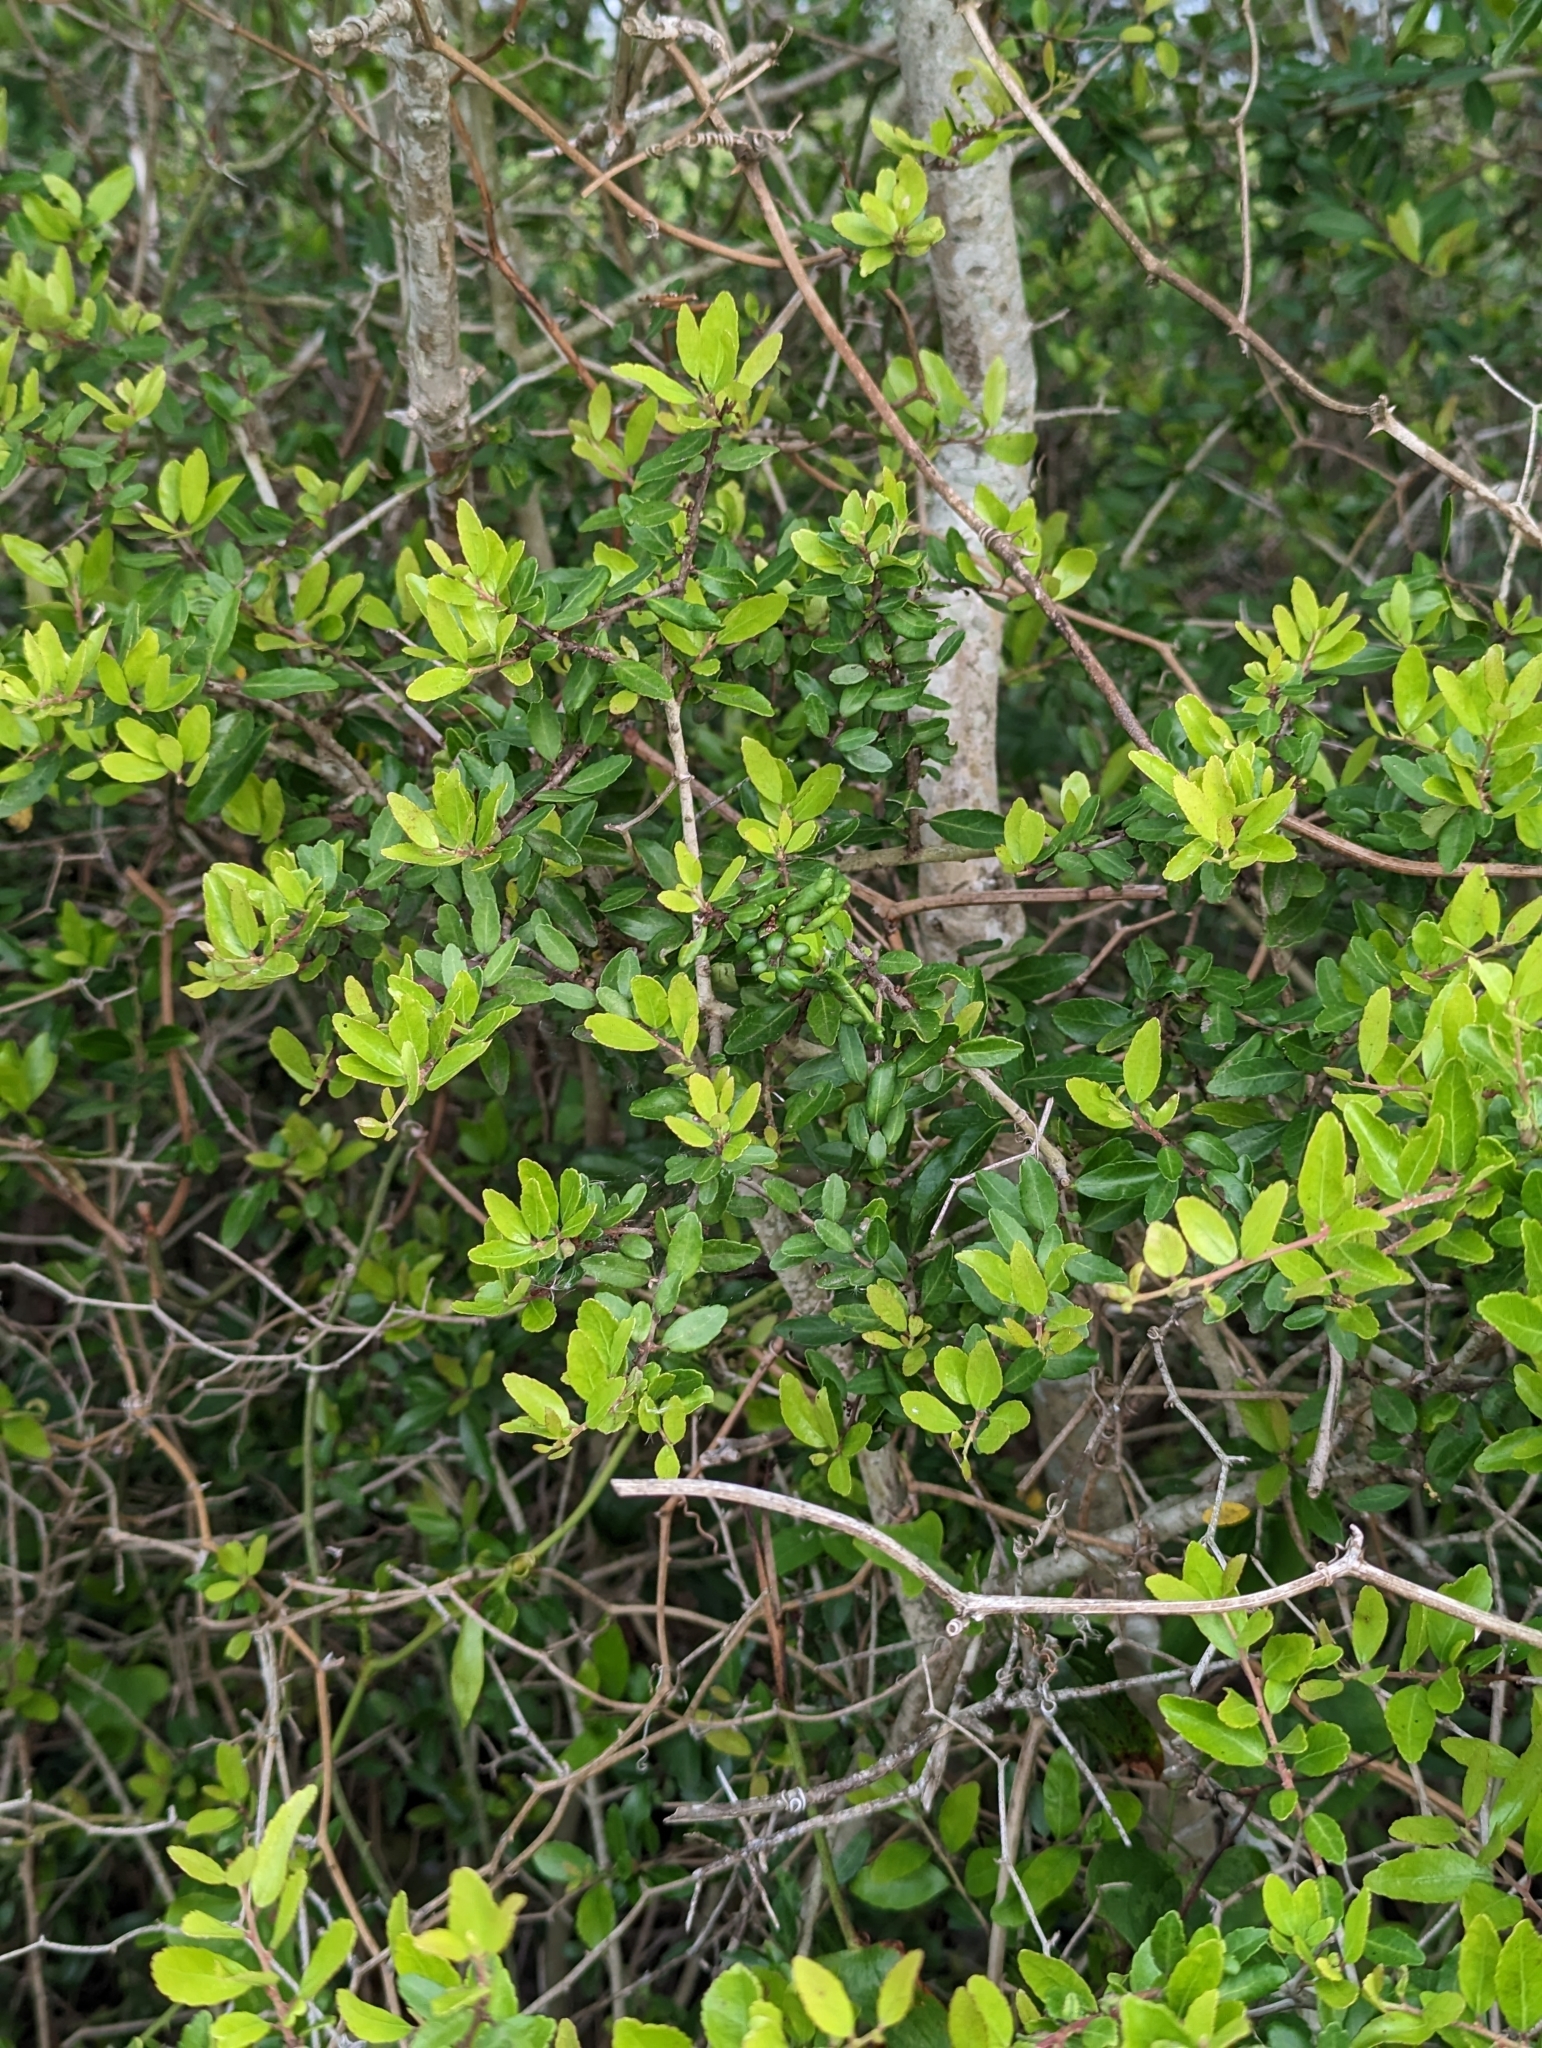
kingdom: Plantae
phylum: Tracheophyta
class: Magnoliopsida
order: Aquifoliales
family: Aquifoliaceae
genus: Ilex
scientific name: Ilex vomitoria
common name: Yaupon holly
